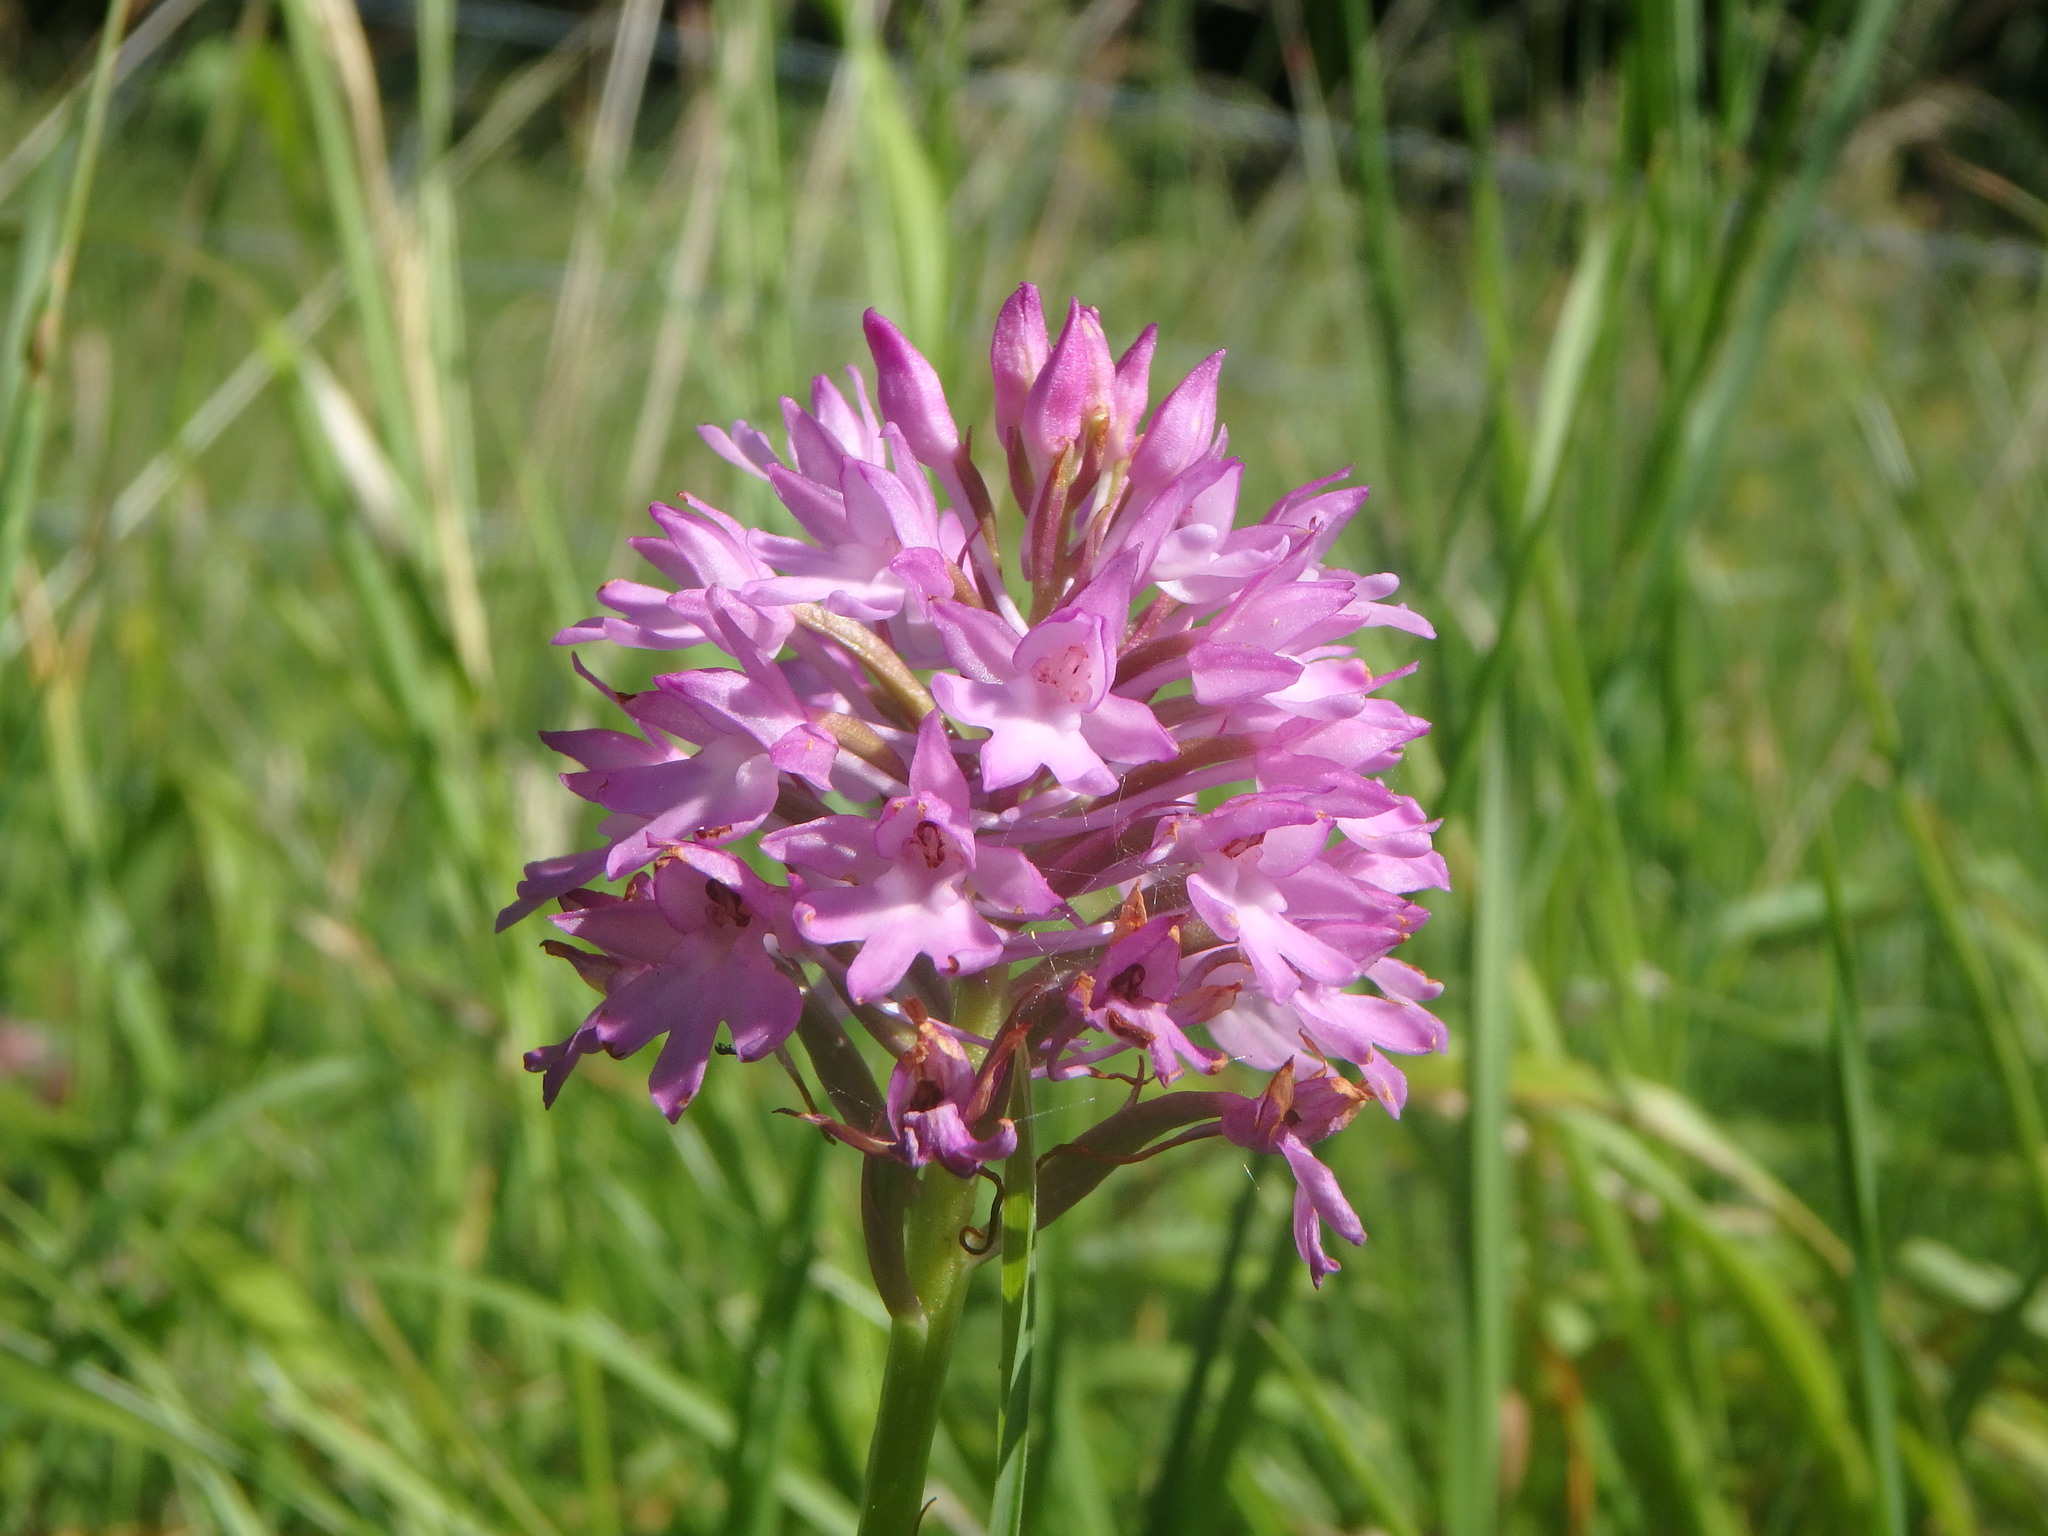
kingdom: Plantae
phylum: Tracheophyta
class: Liliopsida
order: Asparagales
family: Orchidaceae
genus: Anacamptis
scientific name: Anacamptis pyramidalis
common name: Pyramidal orchid
